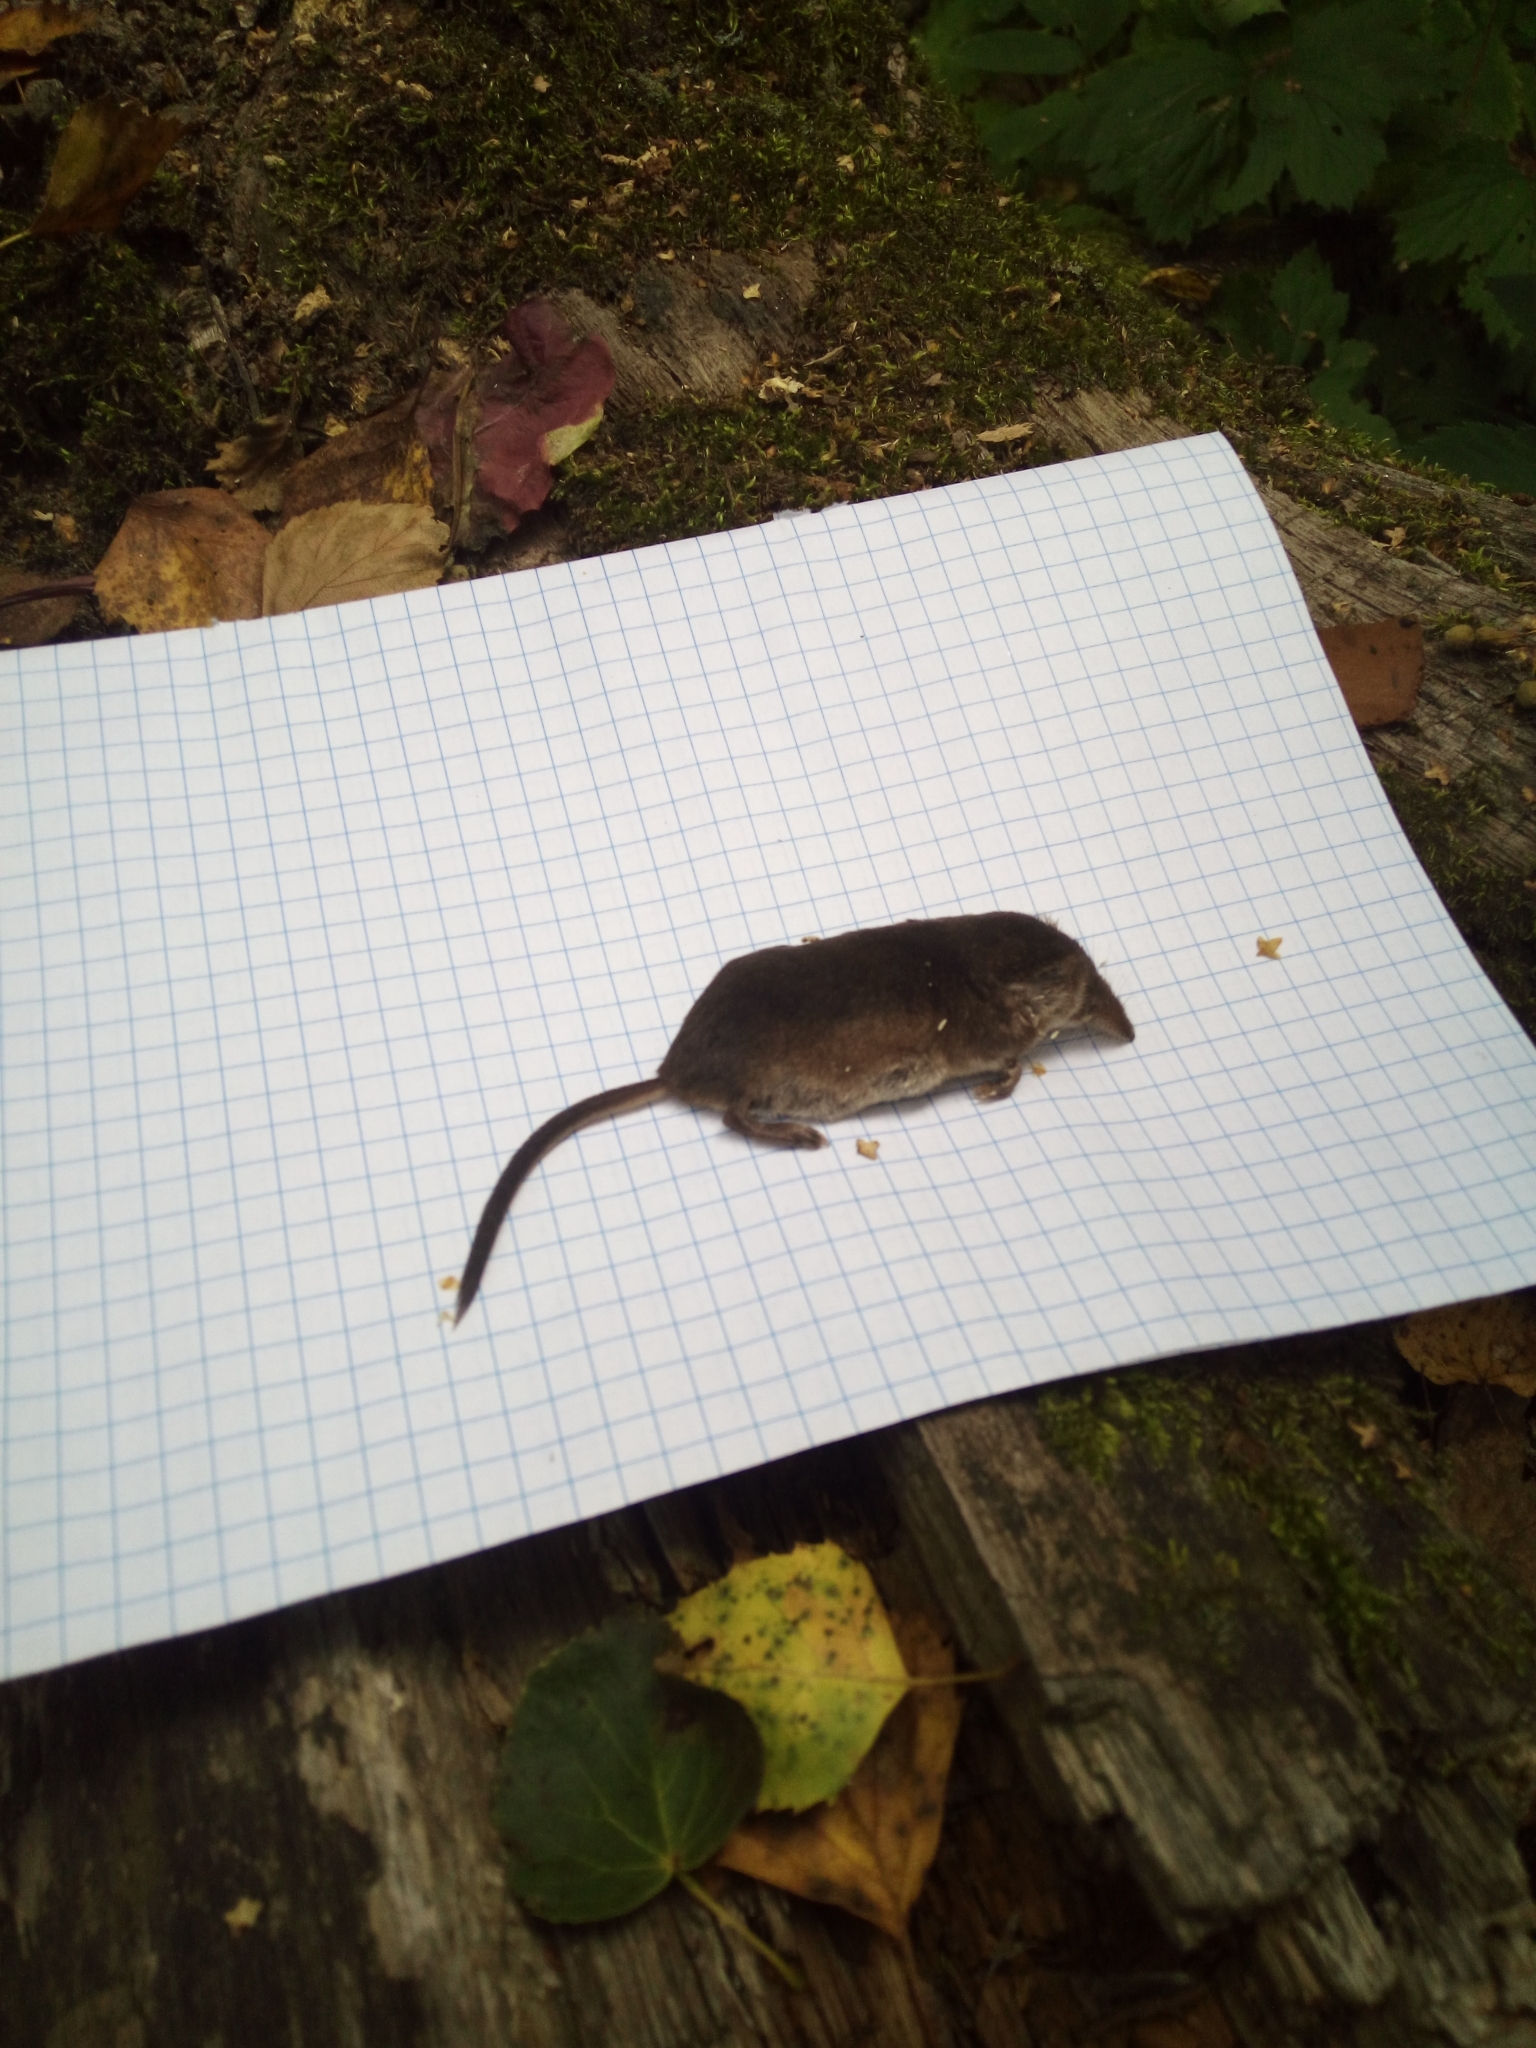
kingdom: Animalia
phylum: Chordata
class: Mammalia
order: Soricomorpha
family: Soricidae
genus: Sorex
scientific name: Sorex araneus
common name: Common shrew
